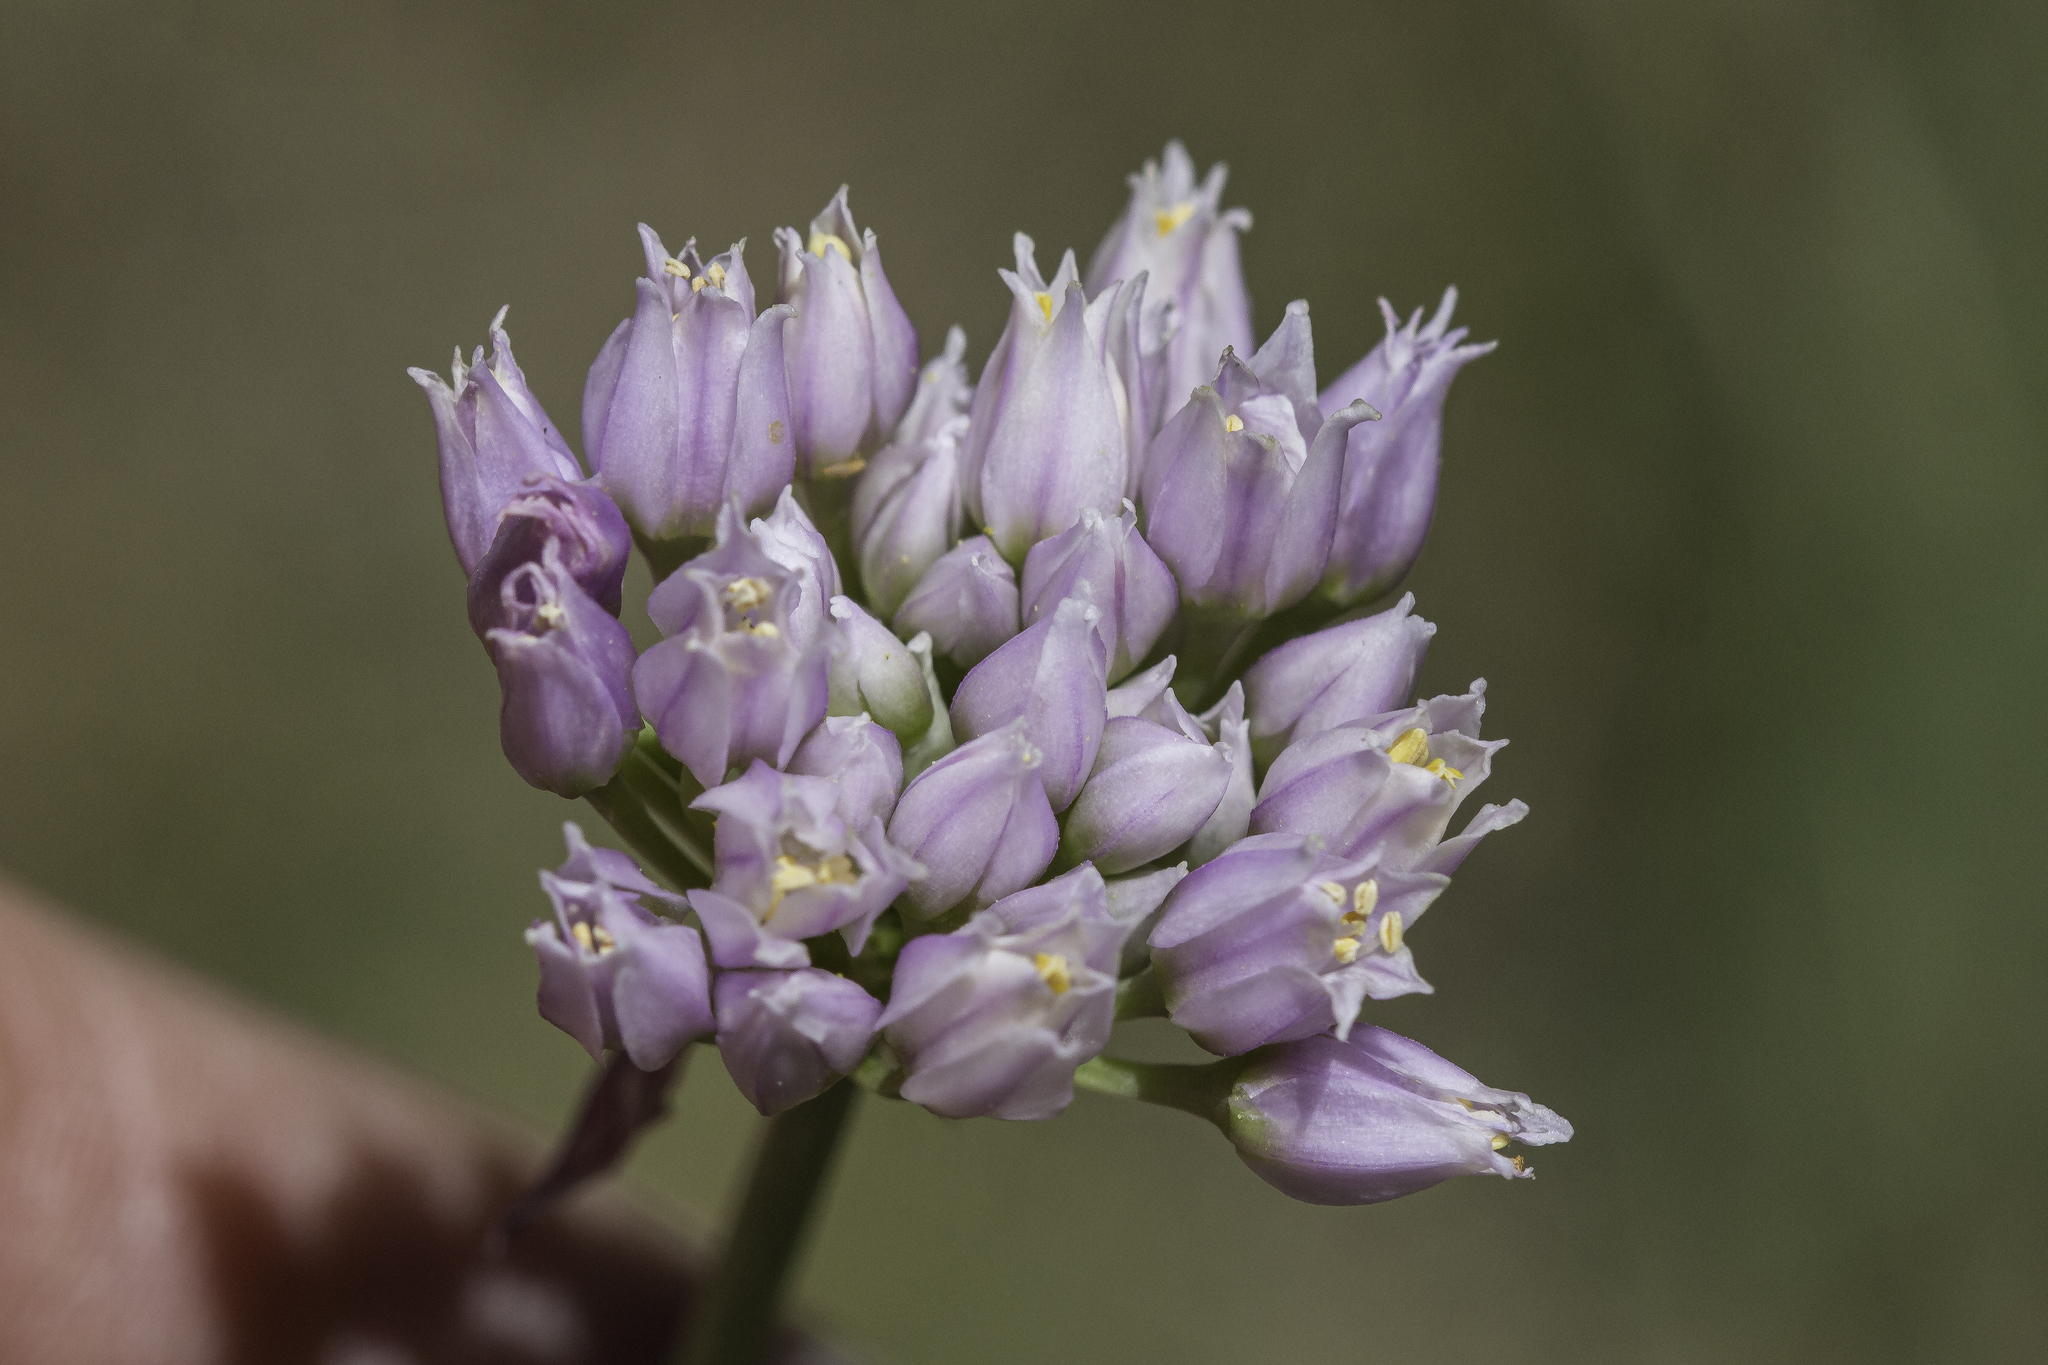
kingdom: Plantae
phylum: Tracheophyta
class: Liliopsida
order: Asparagales
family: Amaryllidaceae
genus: Allium
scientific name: Allium geyeri
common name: Geyer's onion
